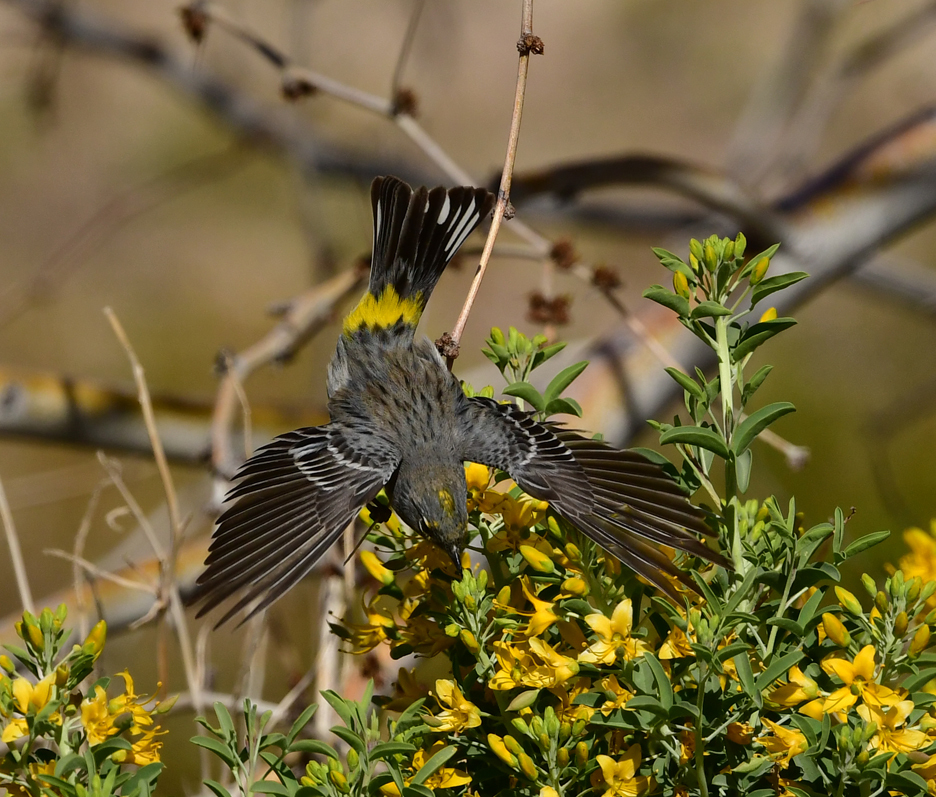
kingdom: Animalia
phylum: Chordata
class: Aves
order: Passeriformes
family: Parulidae
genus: Setophaga
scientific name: Setophaga coronata
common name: Myrtle warbler
